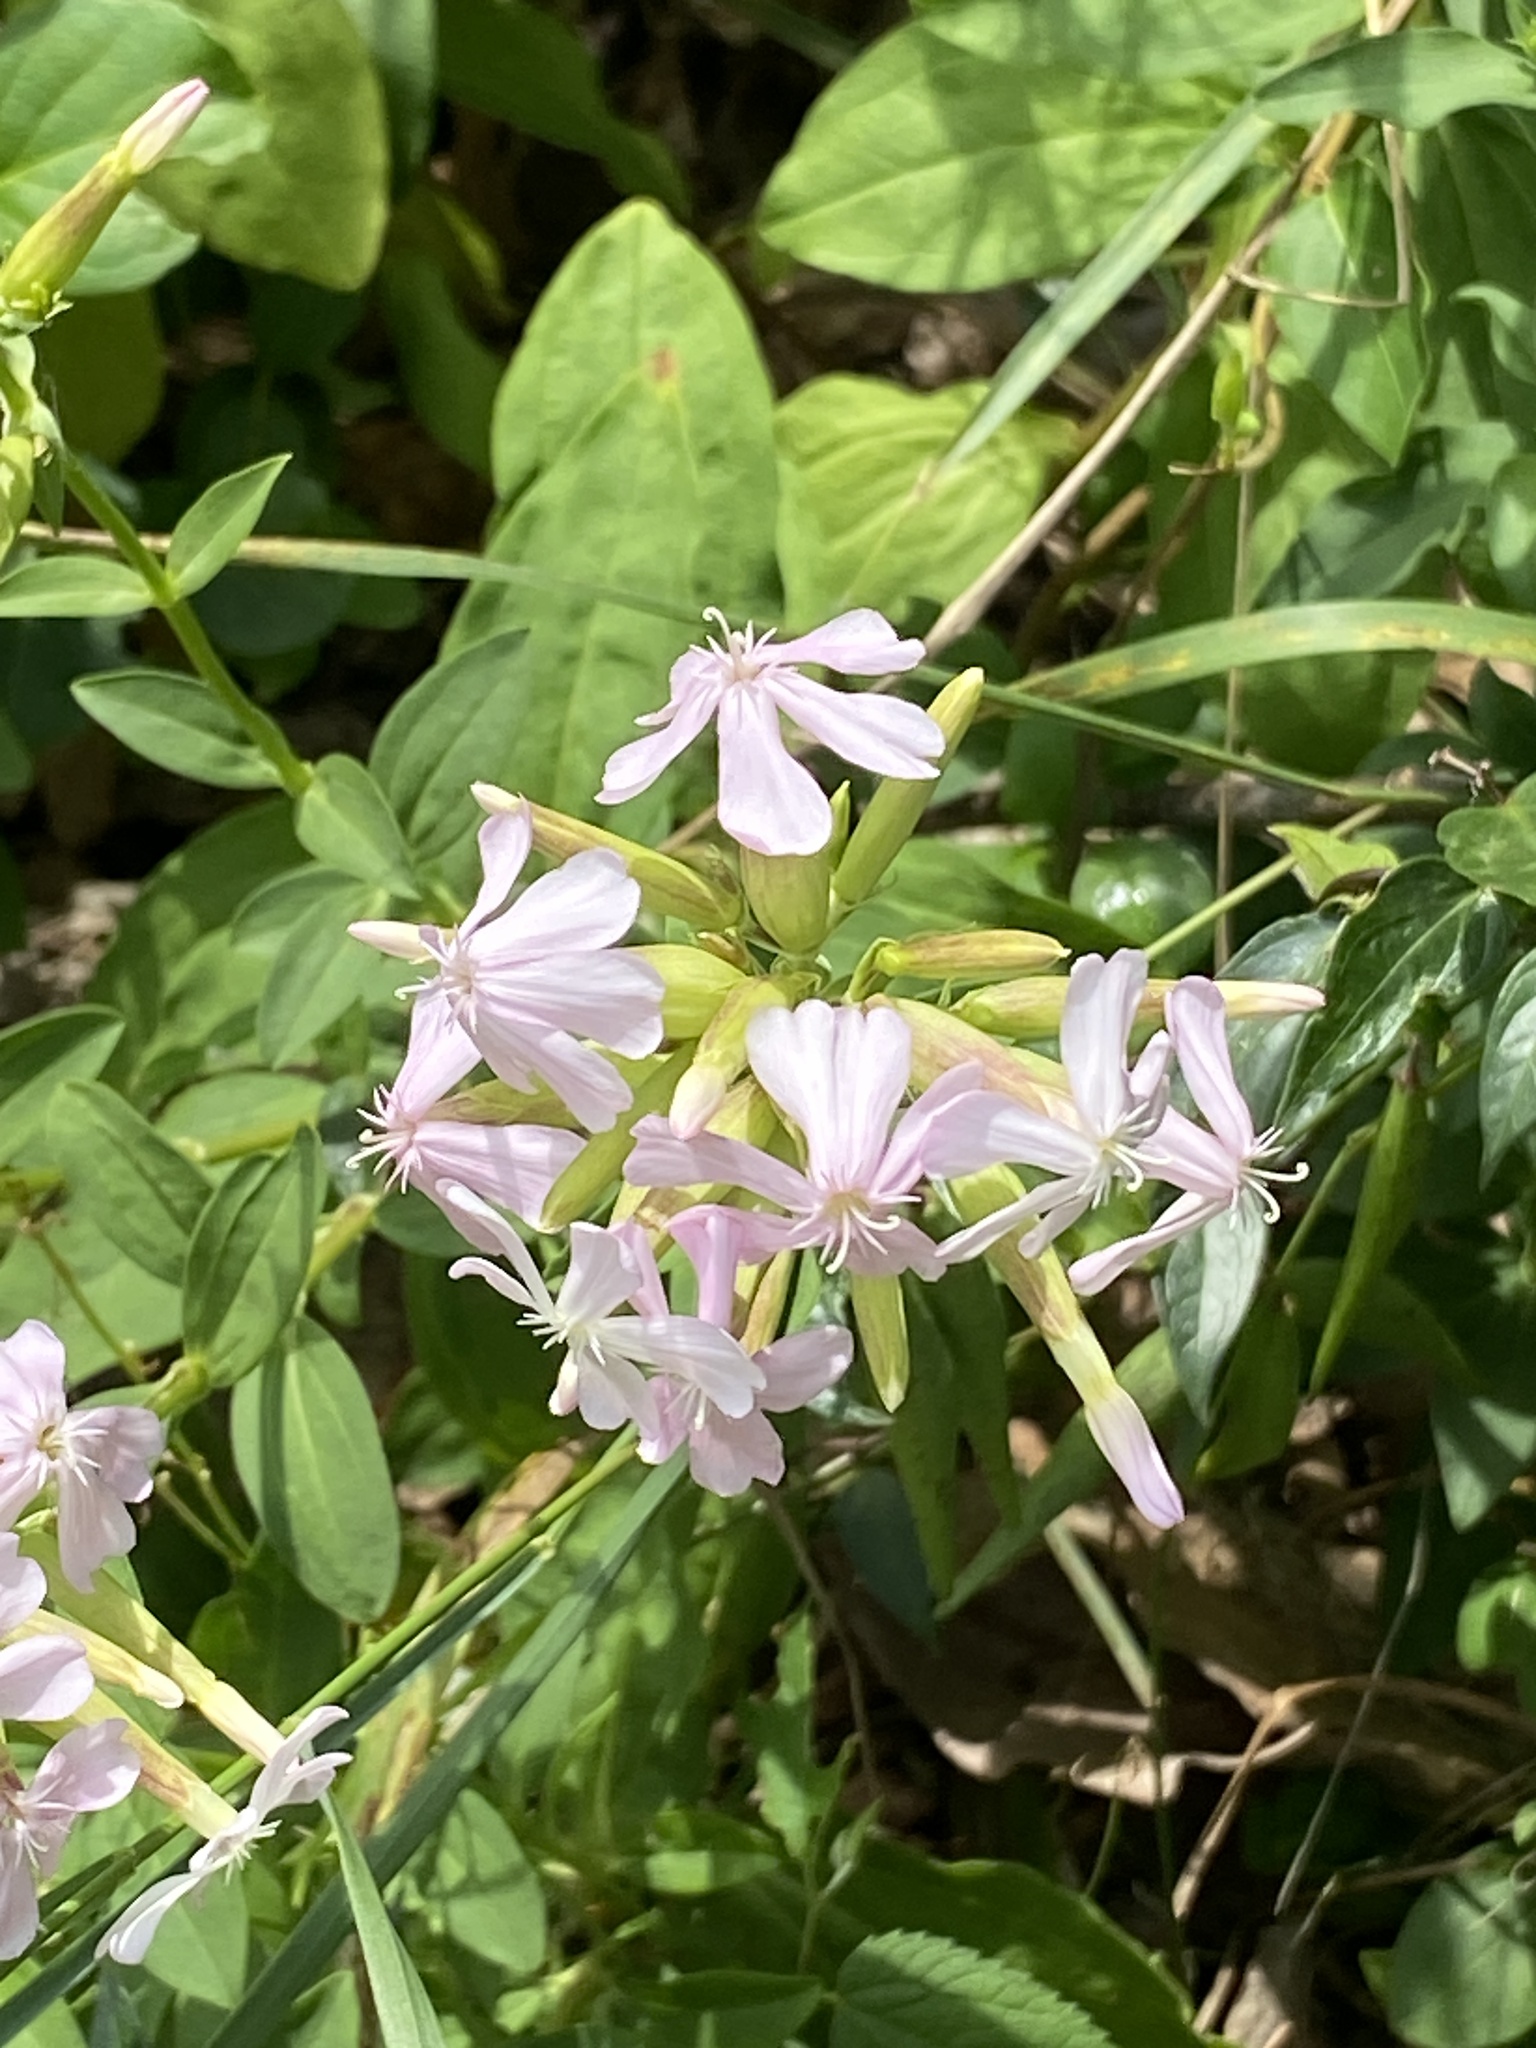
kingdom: Plantae
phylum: Tracheophyta
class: Magnoliopsida
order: Caryophyllales
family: Caryophyllaceae
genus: Saponaria
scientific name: Saponaria officinalis
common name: Soapwort
